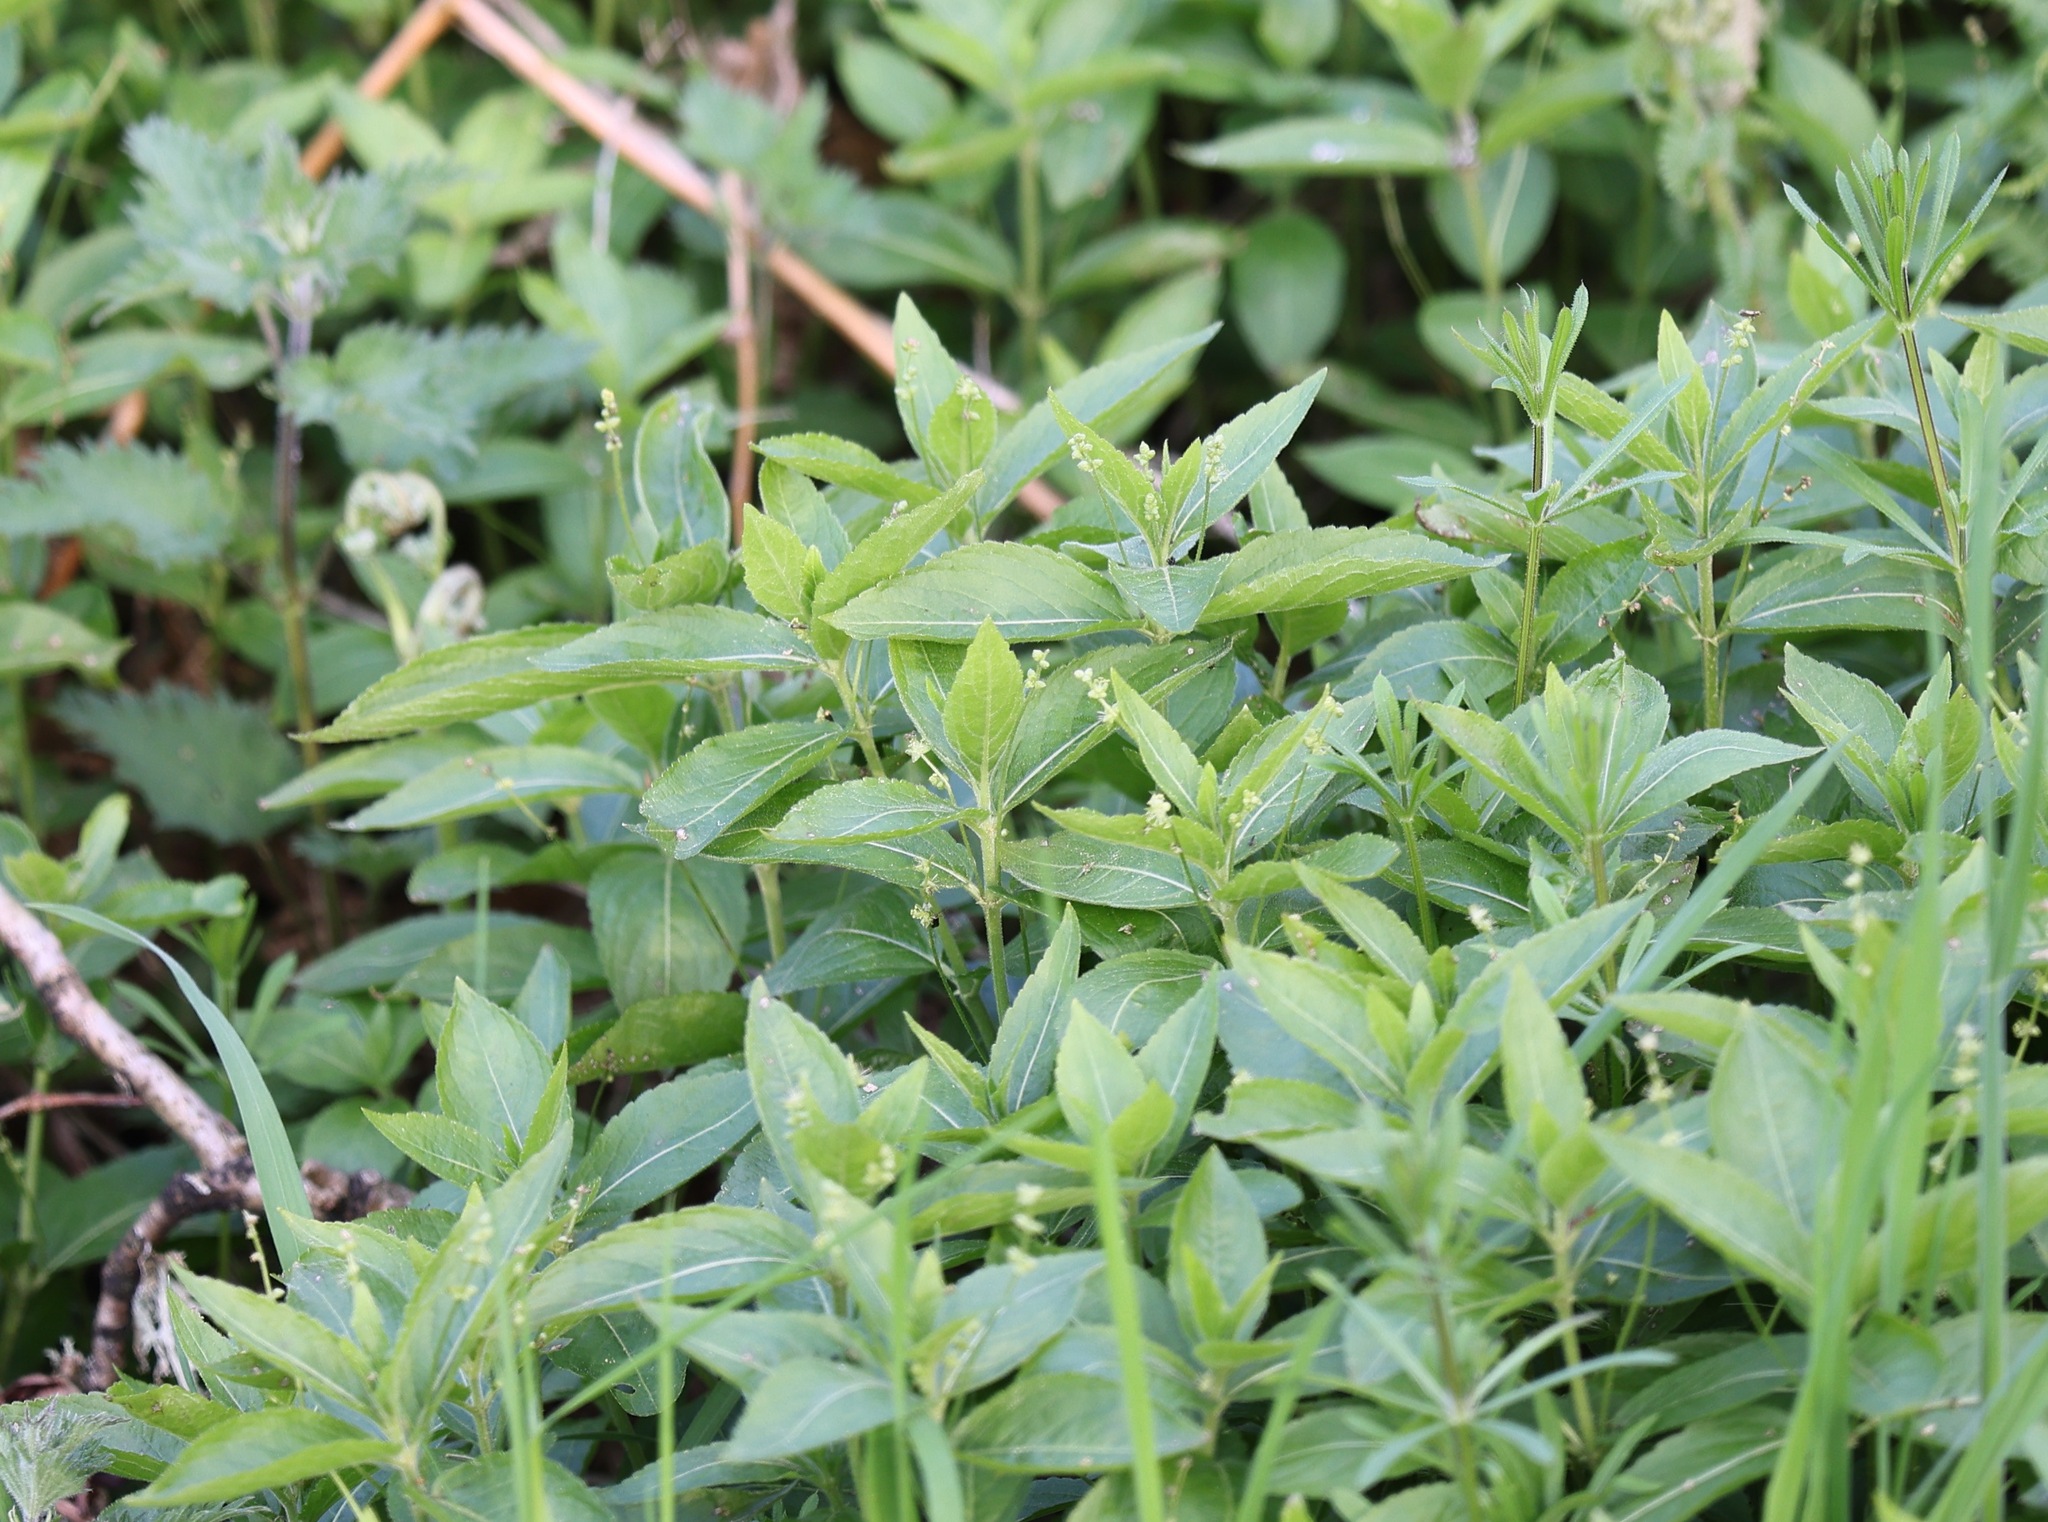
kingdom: Plantae
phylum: Tracheophyta
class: Magnoliopsida
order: Malpighiales
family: Euphorbiaceae
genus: Mercurialis
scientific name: Mercurialis perennis
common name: Dog mercury
